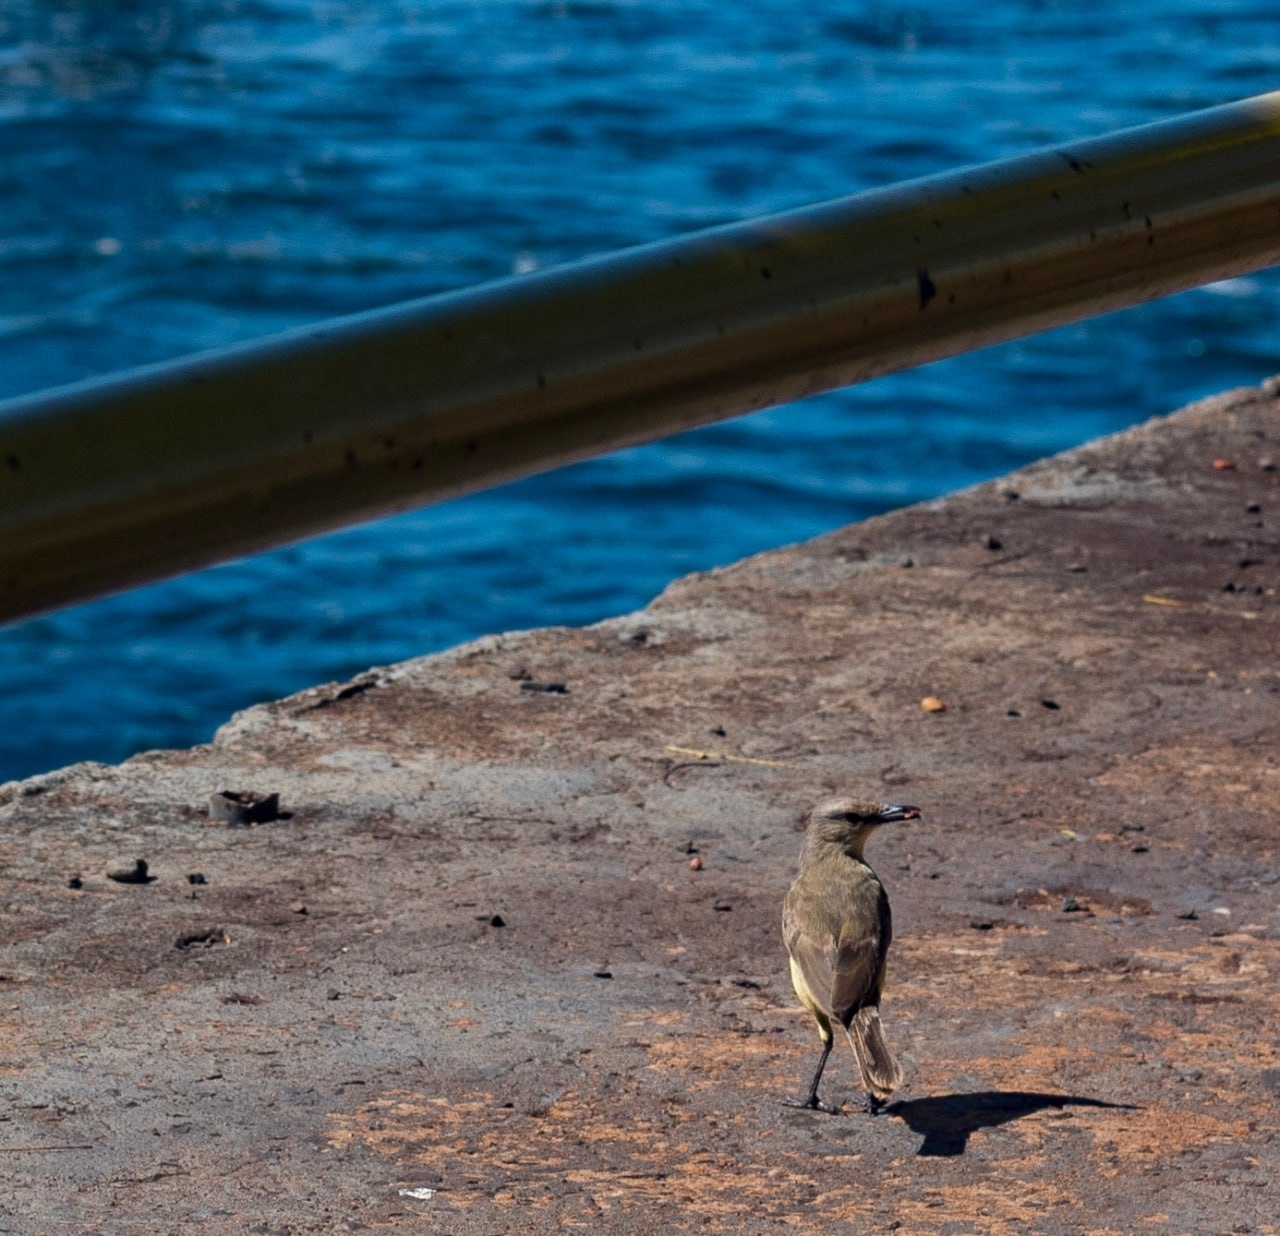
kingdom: Animalia
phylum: Chordata
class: Aves
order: Passeriformes
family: Tyrannidae
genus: Machetornis
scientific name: Machetornis rixosa
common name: Cattle tyrant
